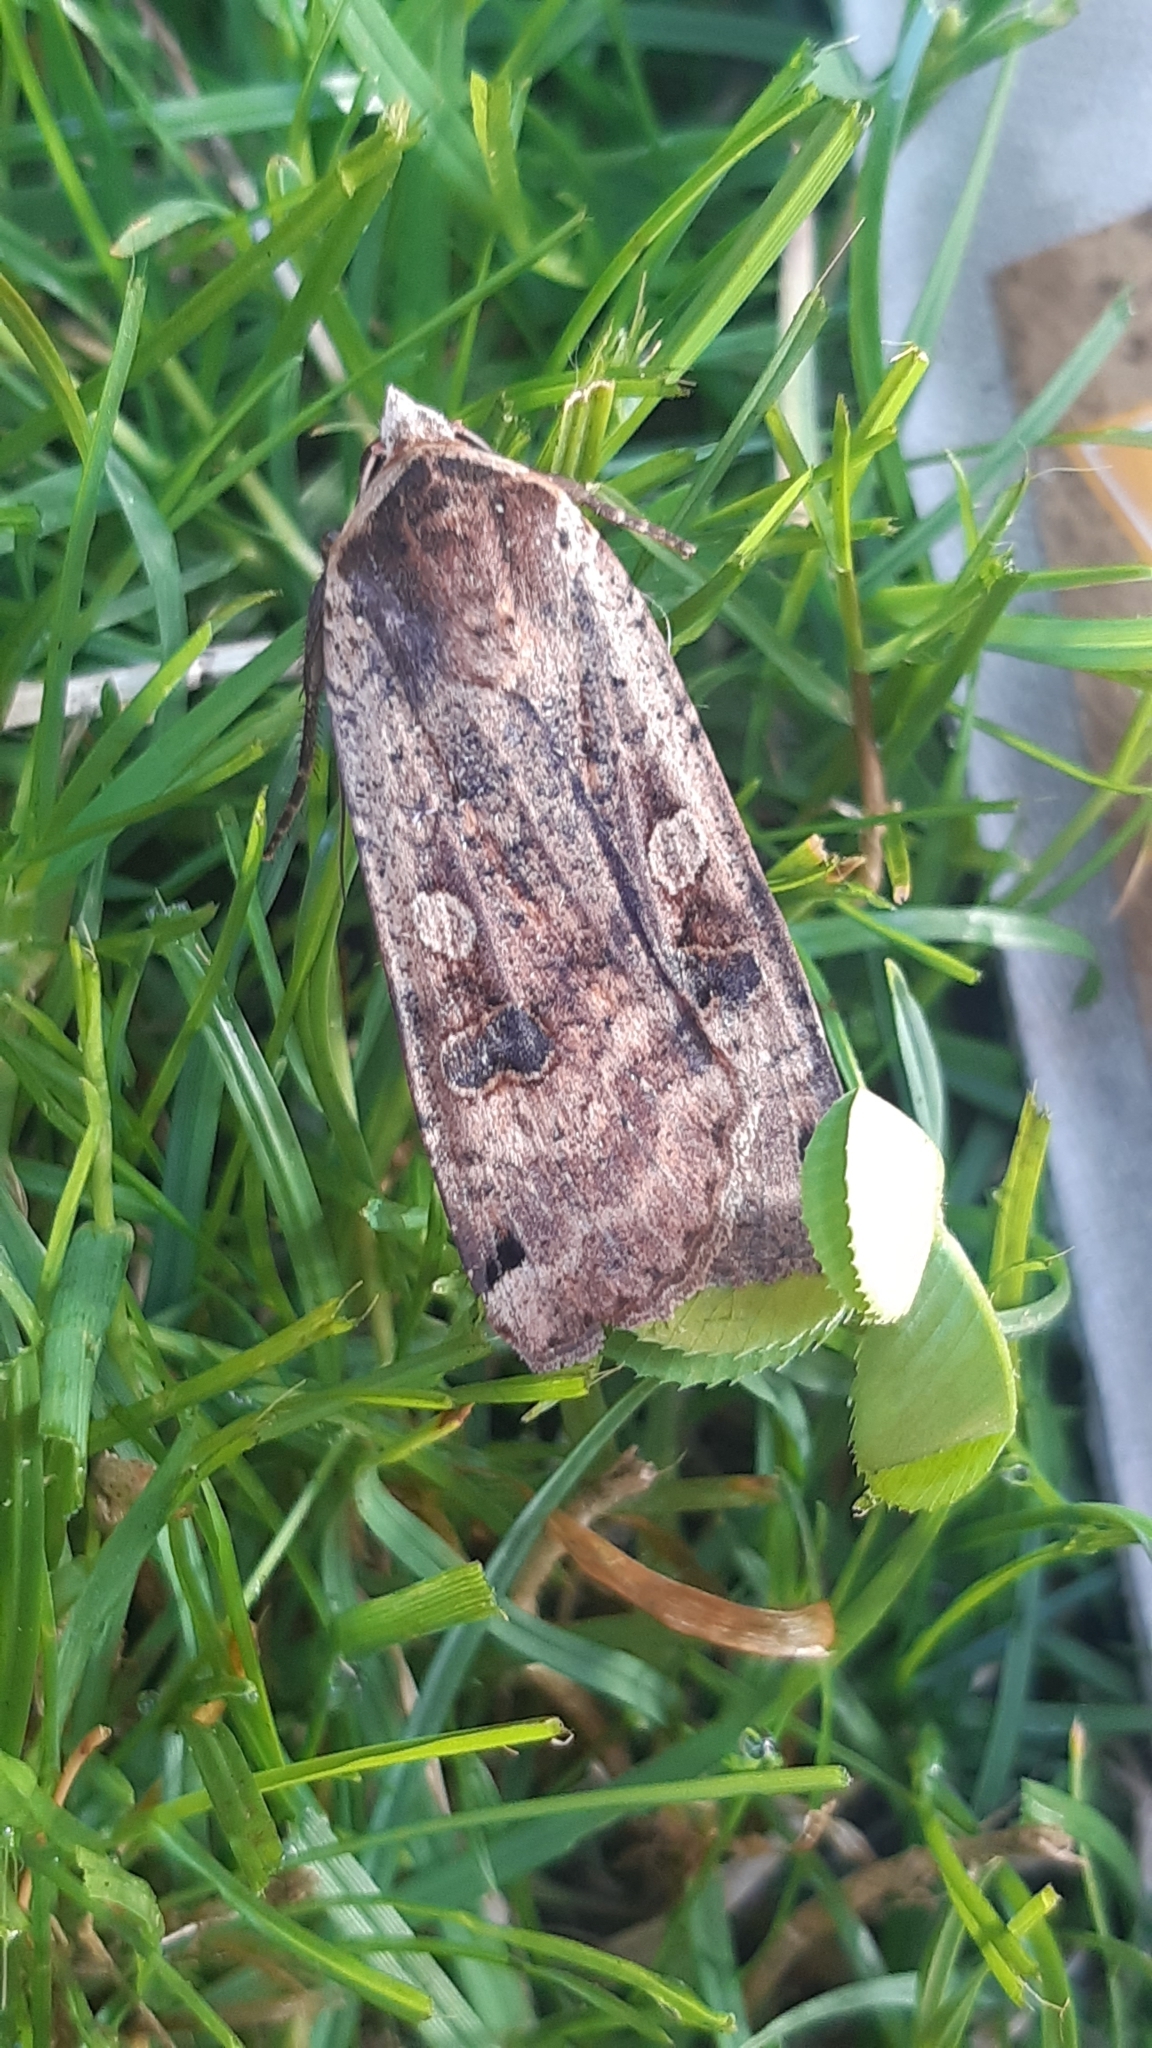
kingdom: Animalia
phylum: Arthropoda
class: Insecta
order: Lepidoptera
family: Noctuidae
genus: Noctua
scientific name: Noctua pronuba
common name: Large yellow underwing
